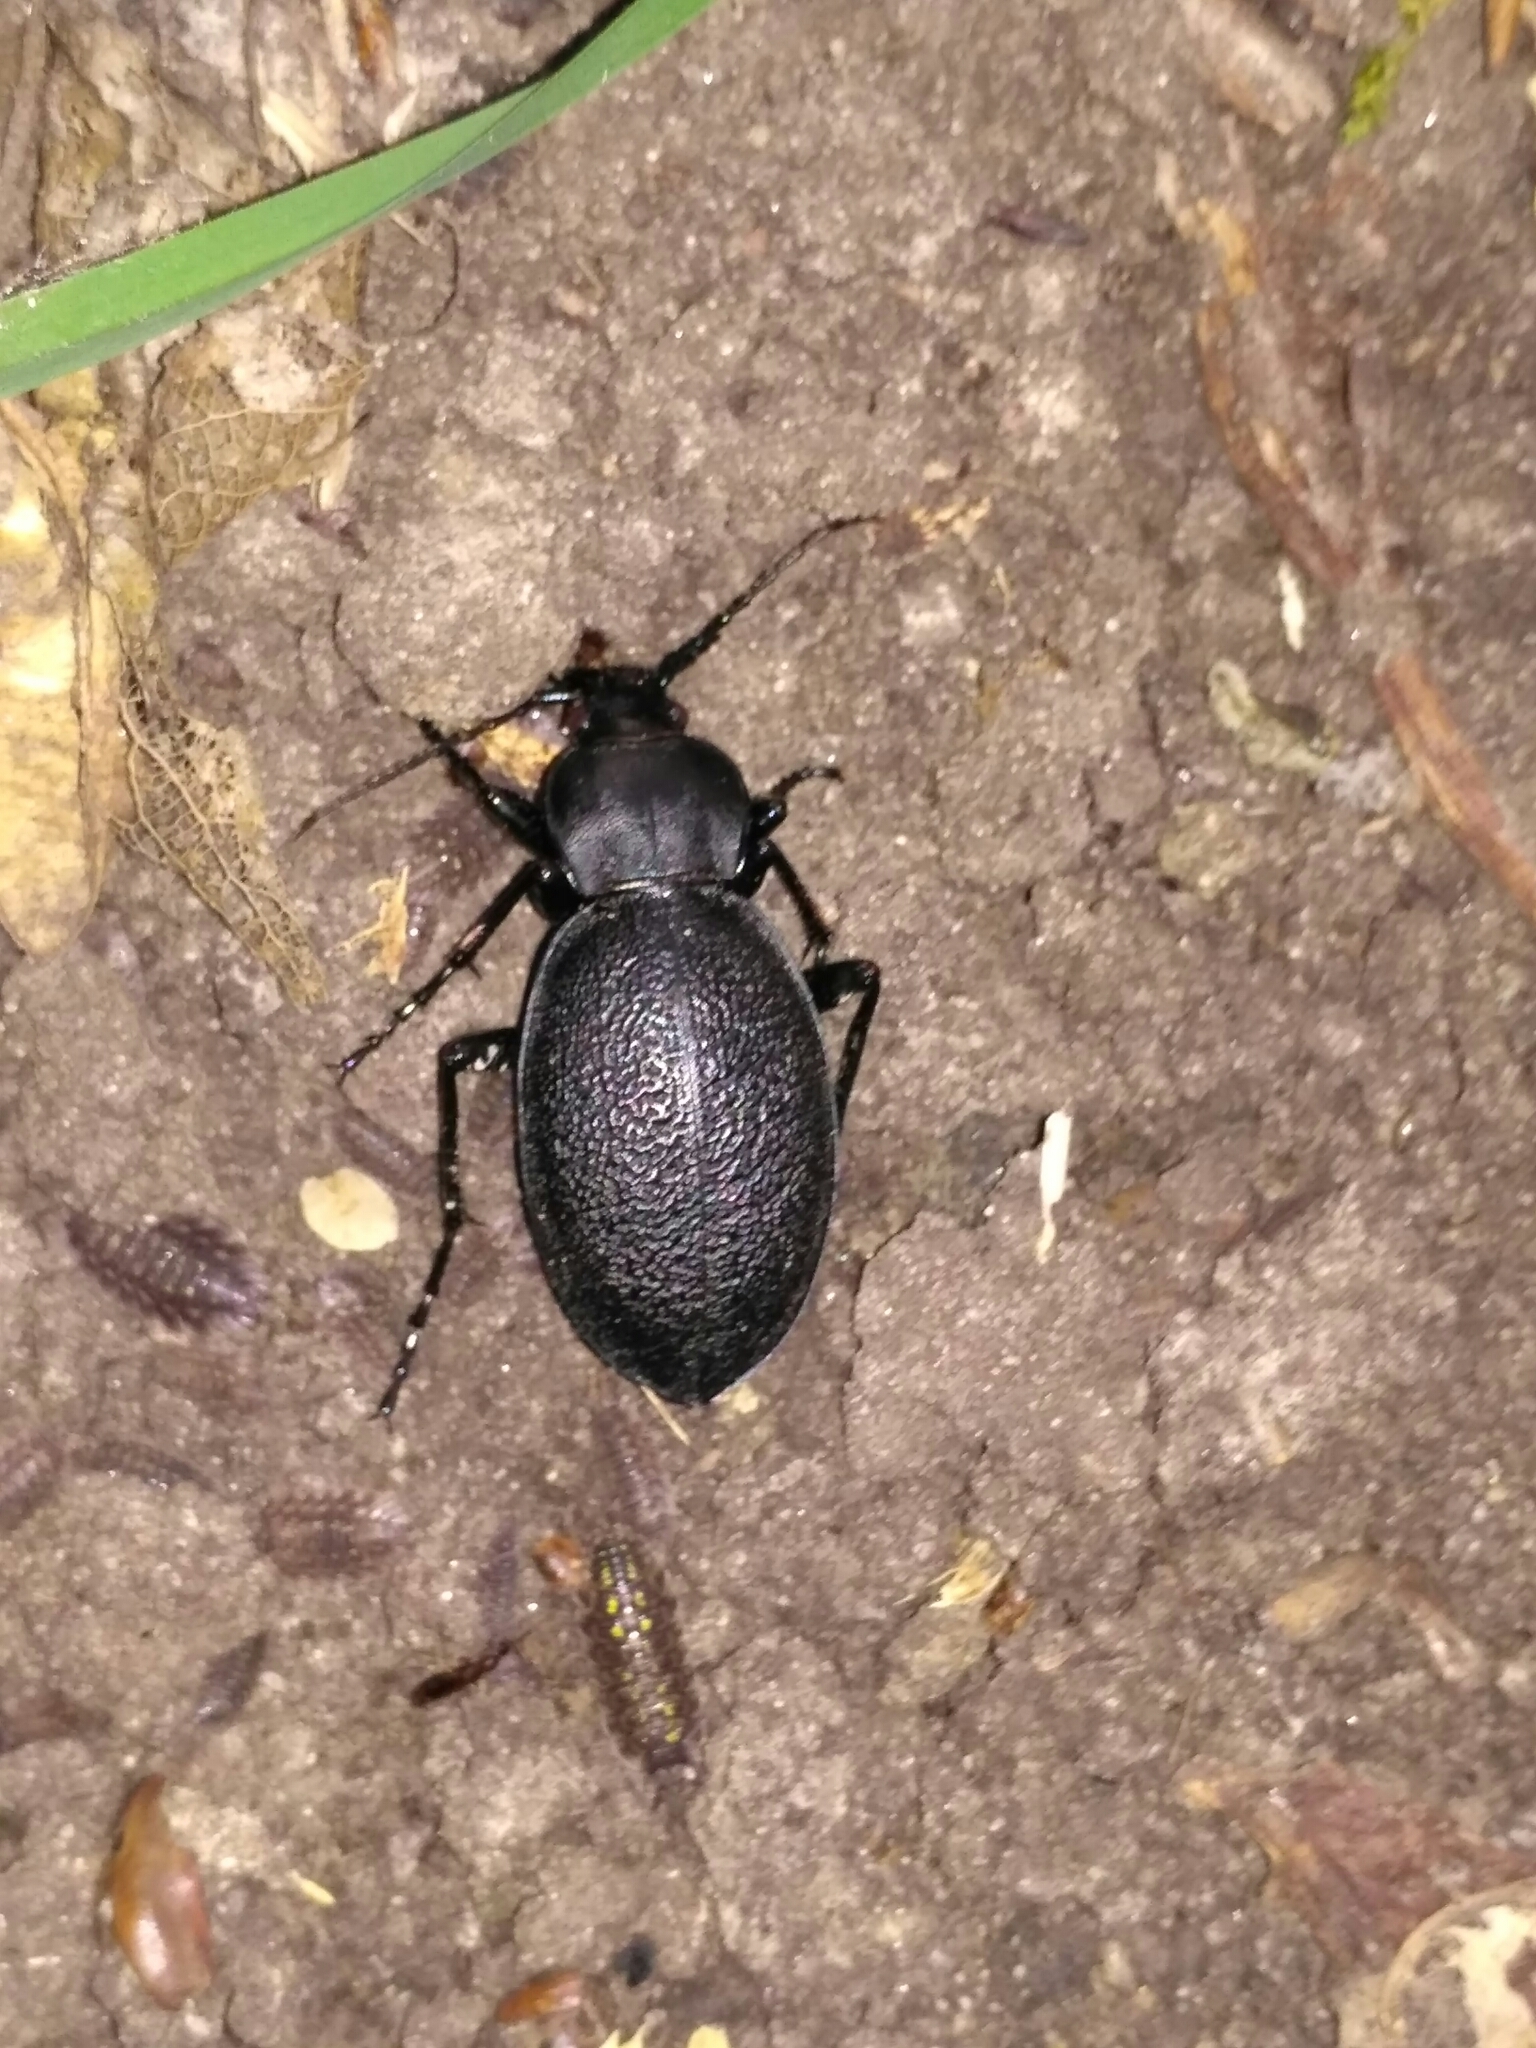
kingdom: Animalia
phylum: Arthropoda
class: Insecta
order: Coleoptera
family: Carabidae
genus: Carabus
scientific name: Carabus coriaceus
